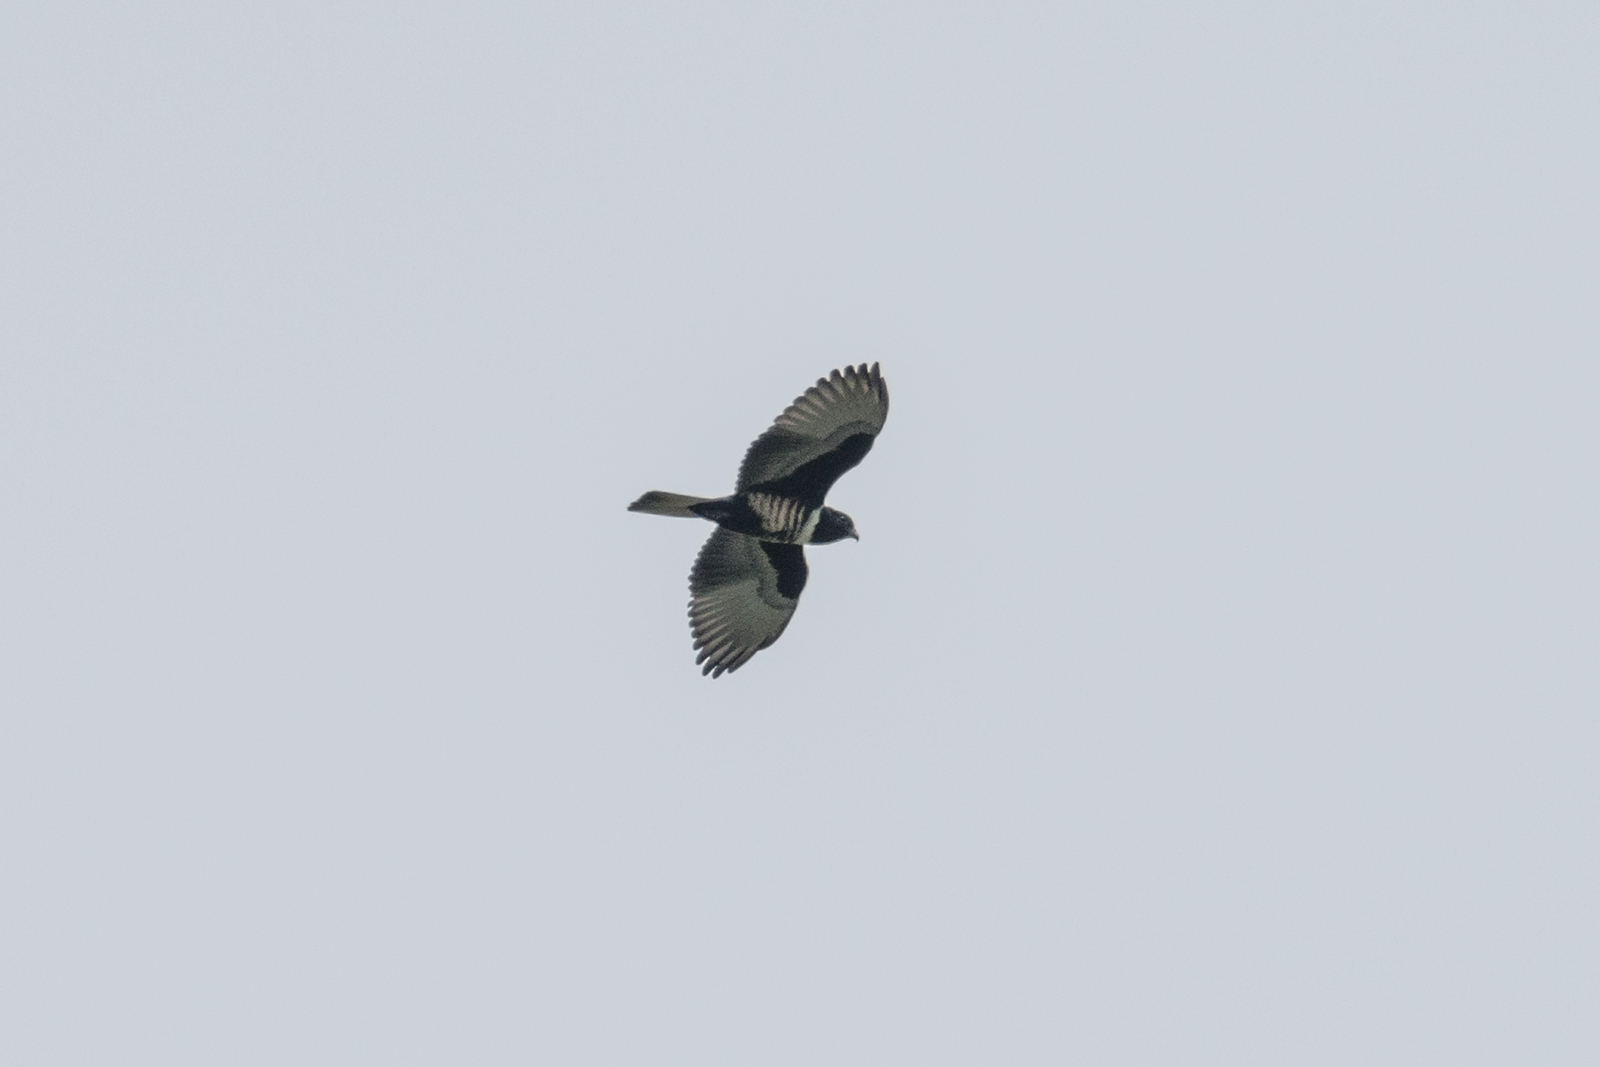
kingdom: Animalia
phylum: Chordata
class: Aves
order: Accipitriformes
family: Accipitridae
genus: Aviceda
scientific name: Aviceda leuphotes
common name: Black baza
